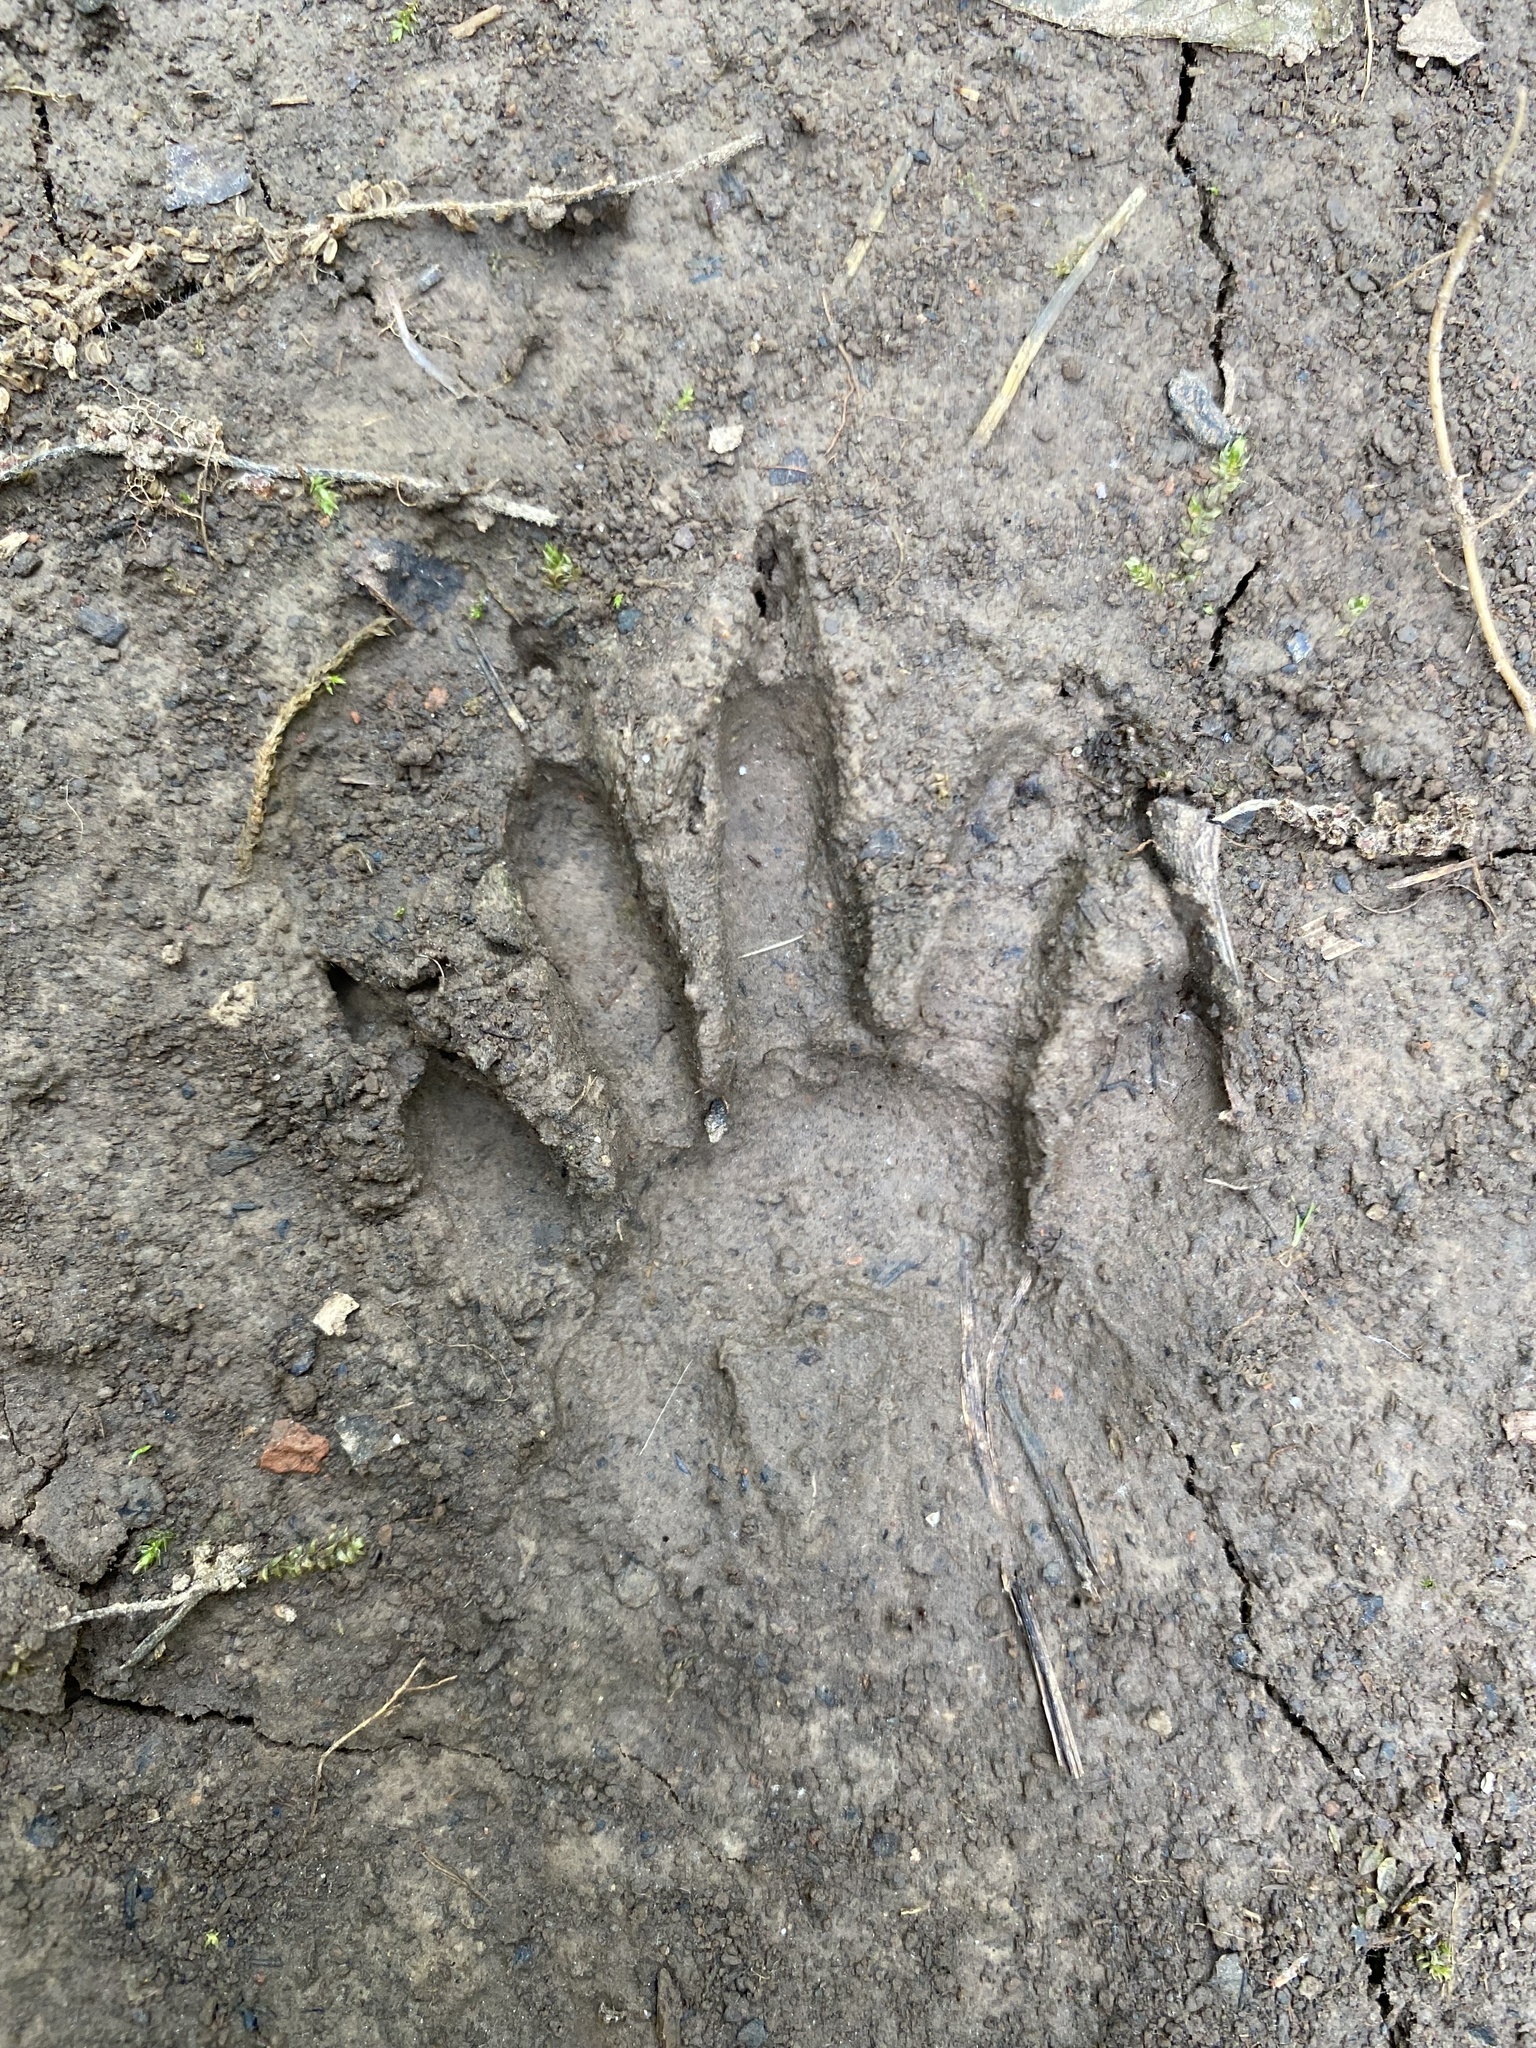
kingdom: Animalia
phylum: Chordata
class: Mammalia
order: Carnivora
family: Procyonidae
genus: Procyon
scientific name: Procyon lotor
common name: Raccoon
